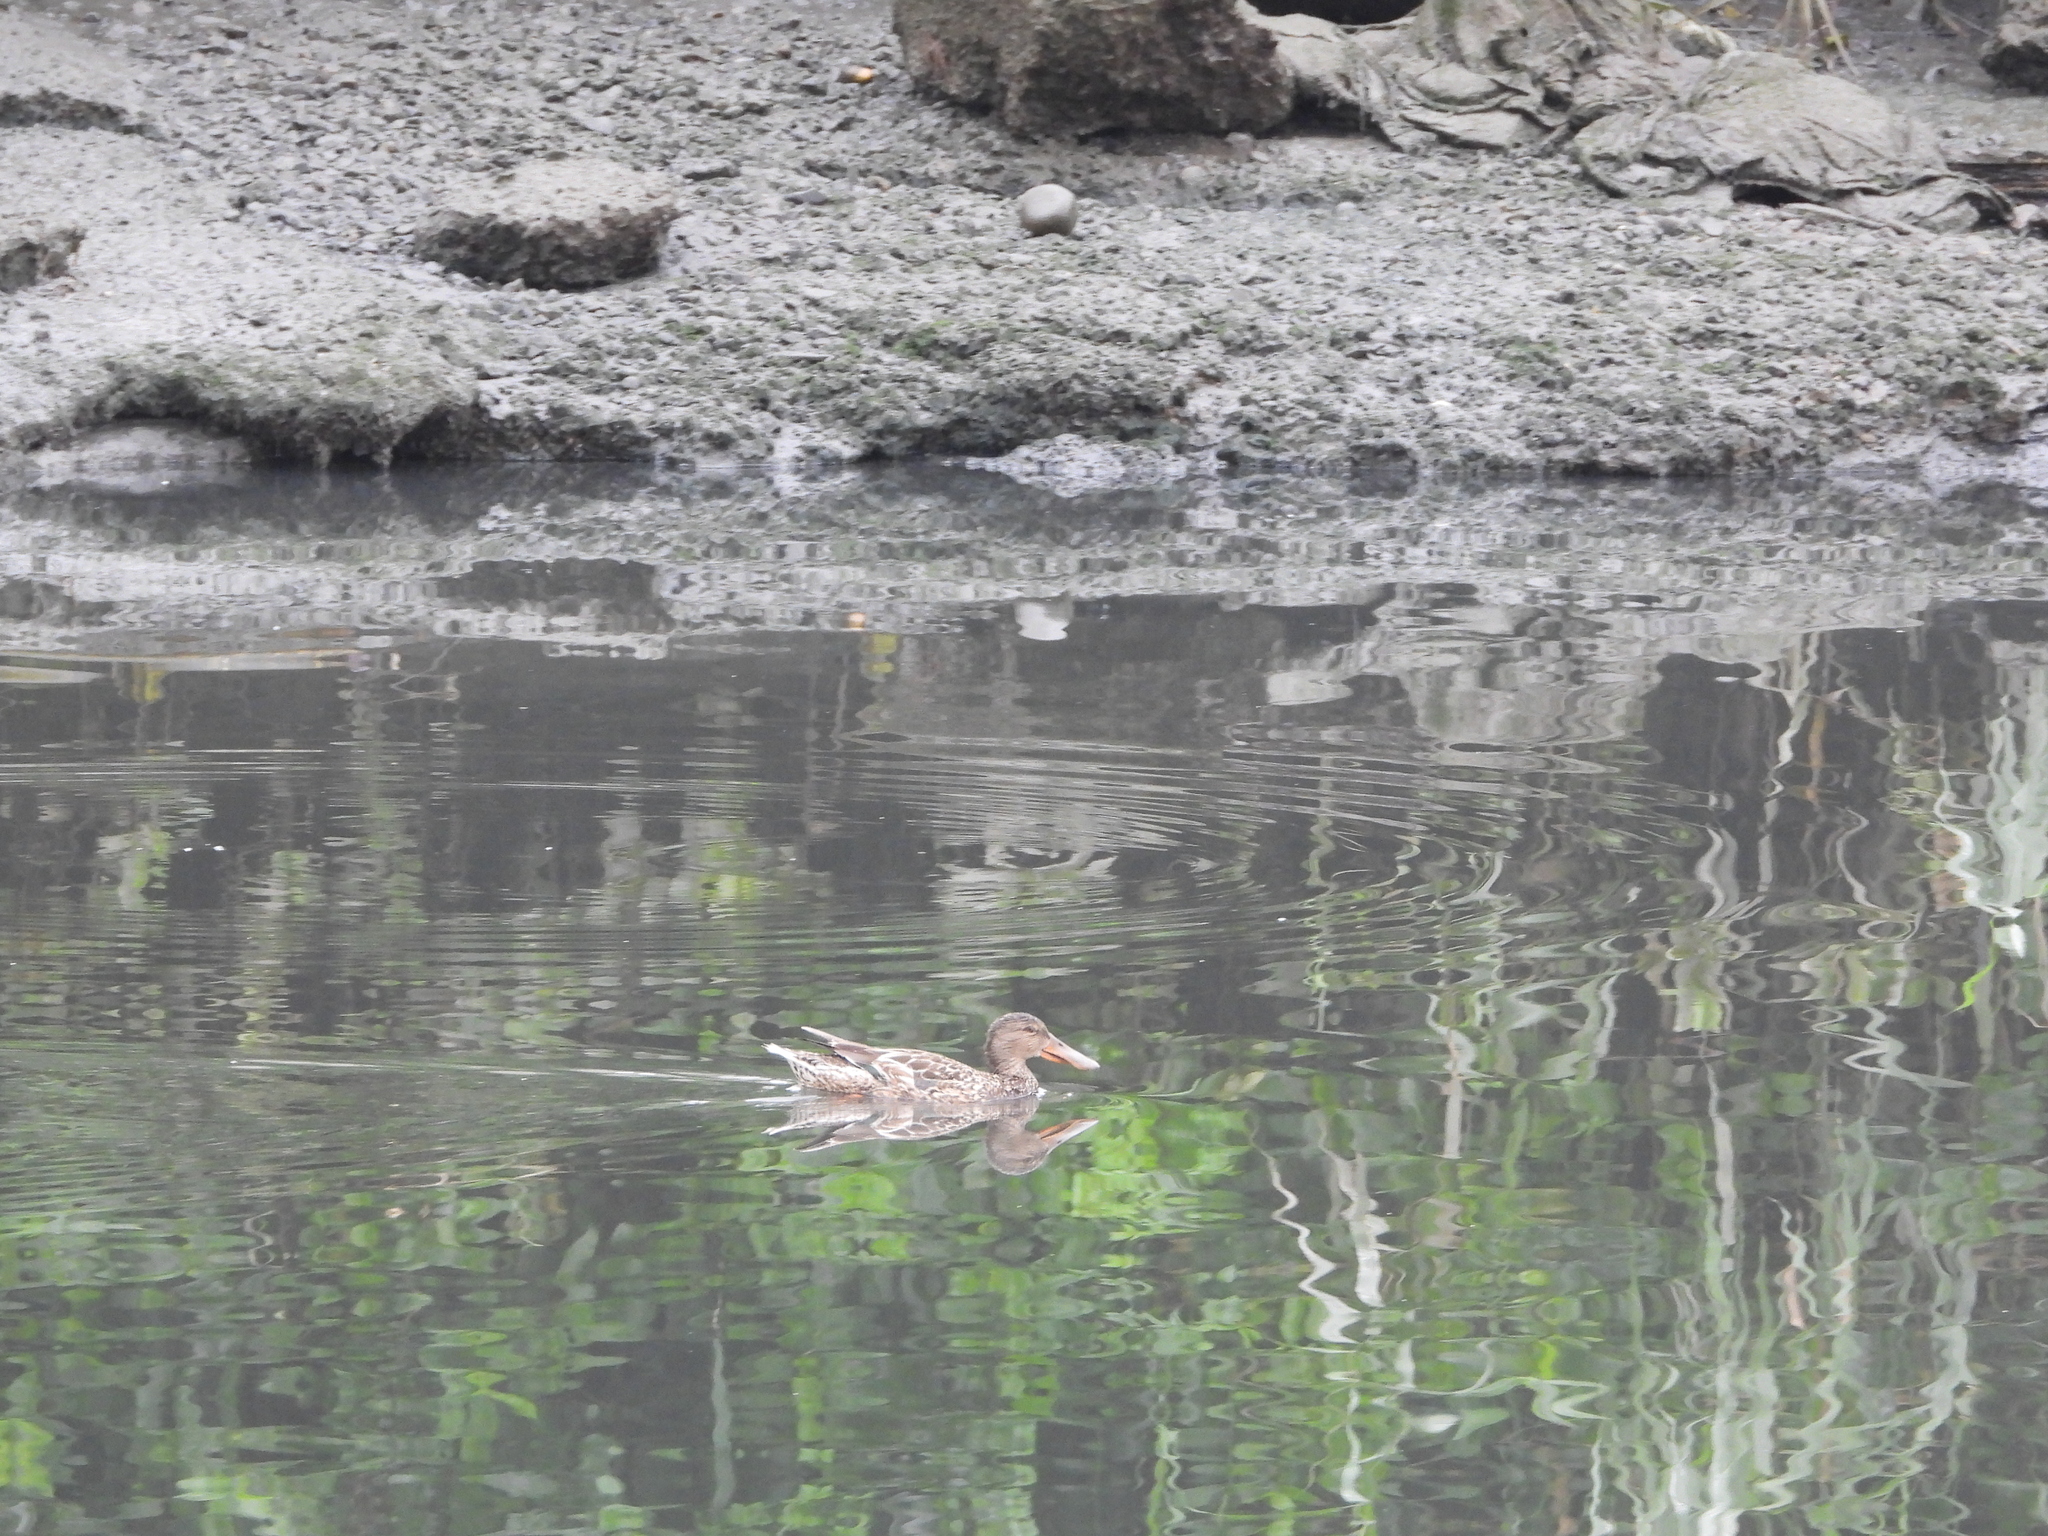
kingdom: Animalia
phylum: Chordata
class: Aves
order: Anseriformes
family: Anatidae
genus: Spatula
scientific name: Spatula clypeata
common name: Northern shoveler
